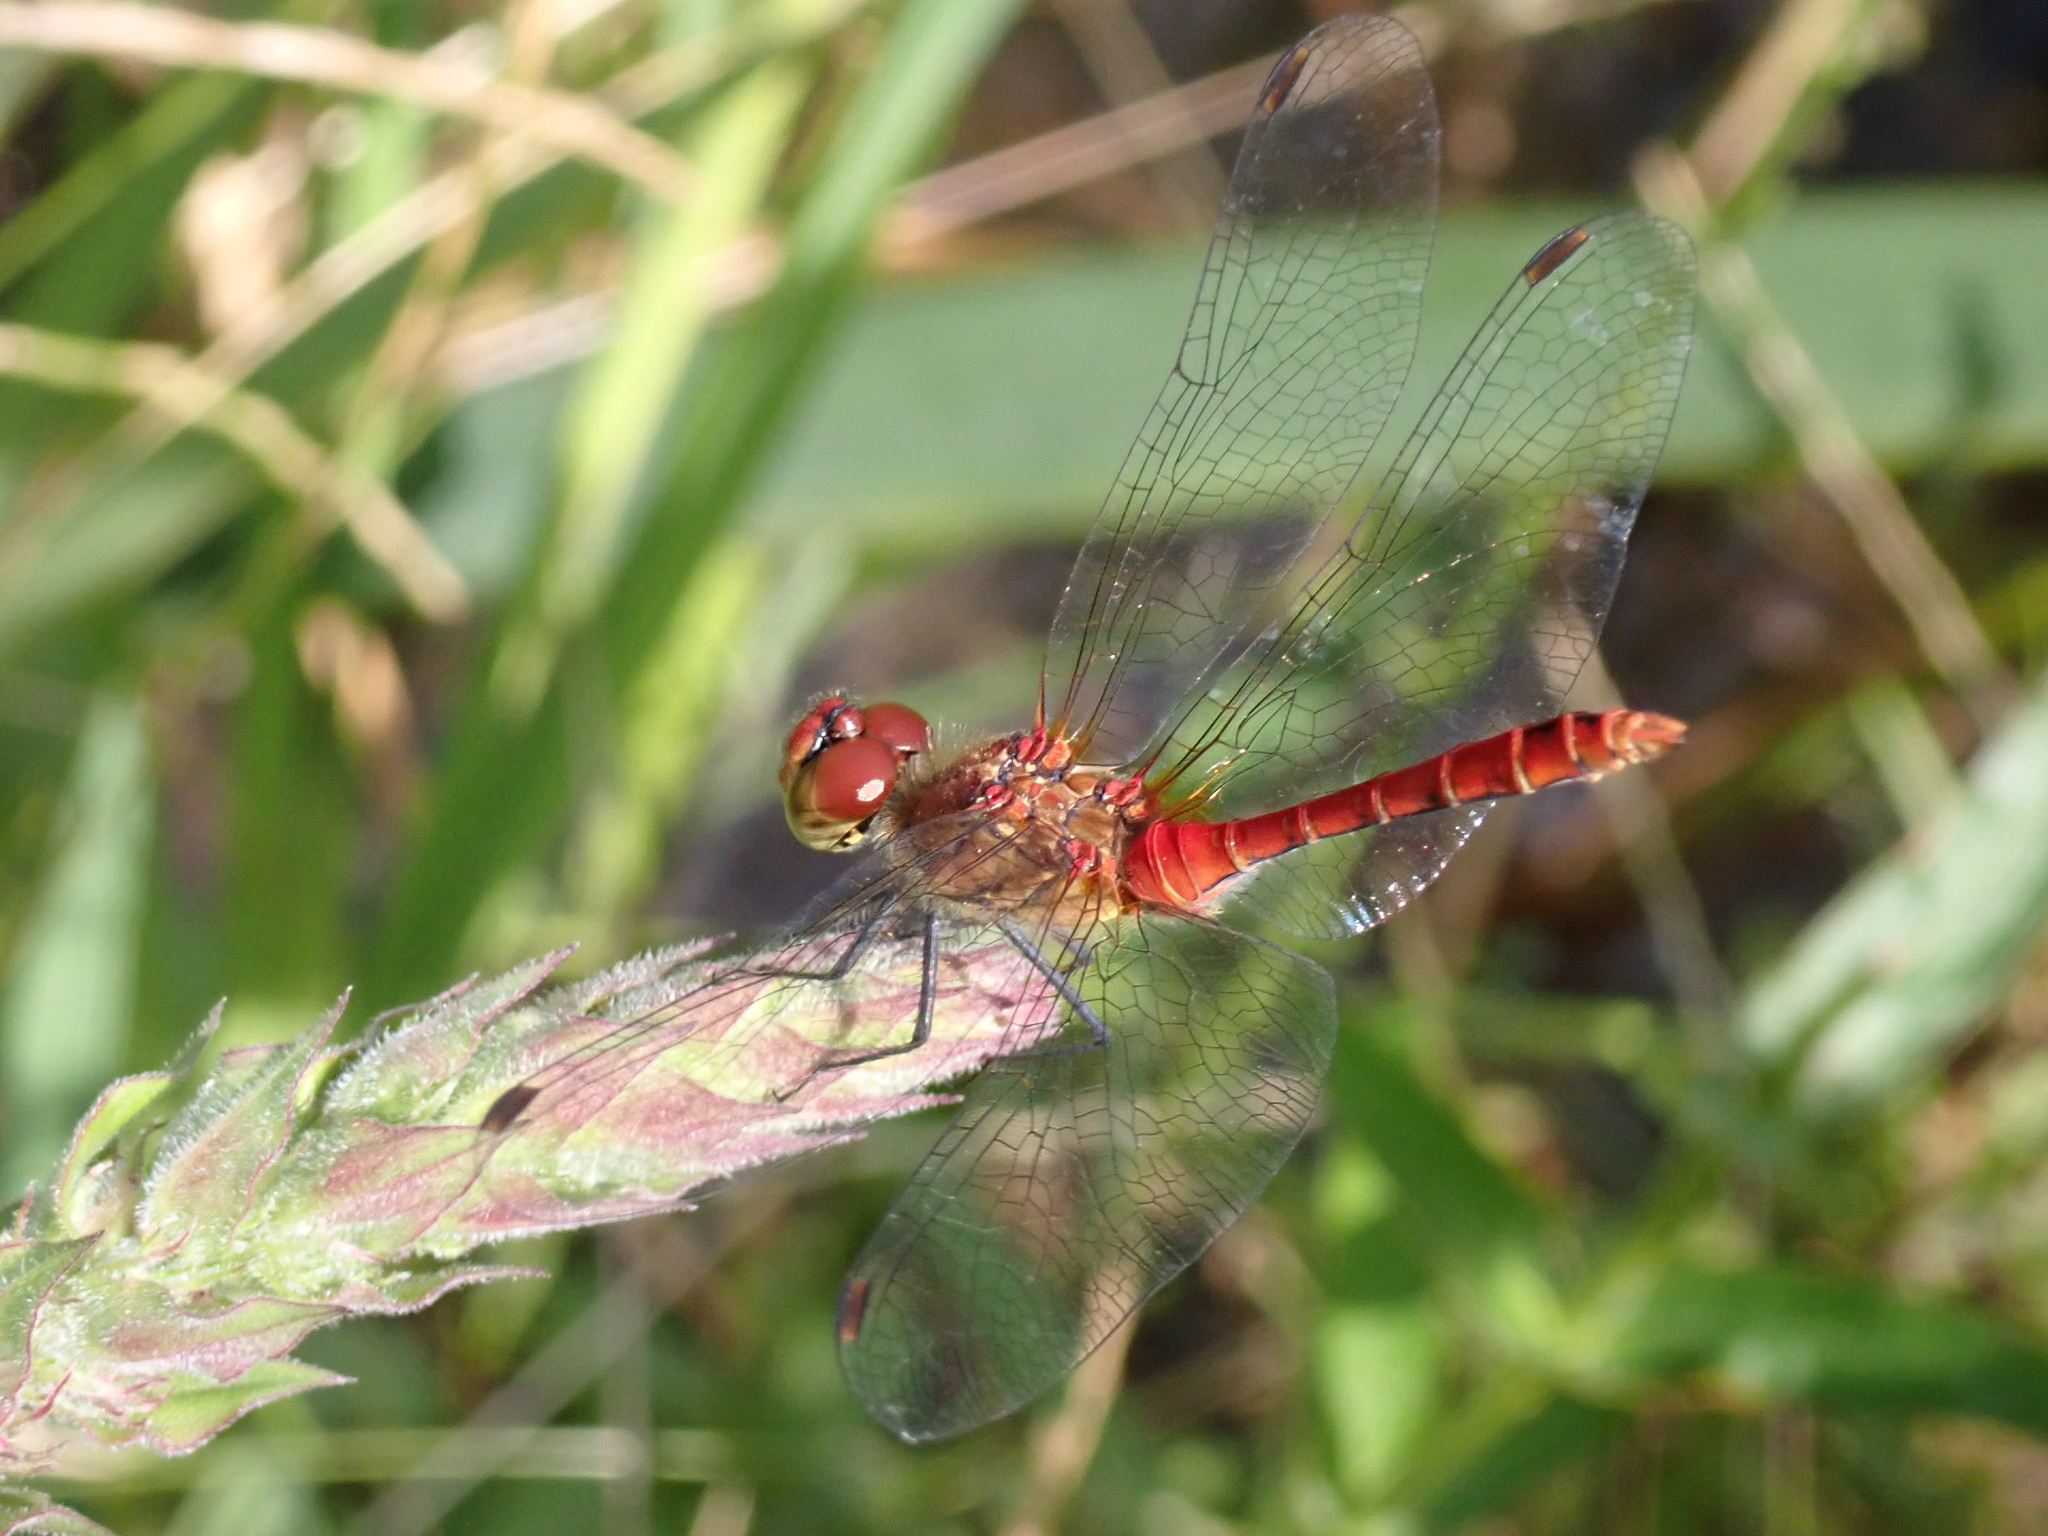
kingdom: Animalia
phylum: Arthropoda
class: Insecta
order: Odonata
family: Libellulidae
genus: Sympetrum
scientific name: Sympetrum sanguineum
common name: Ruddy darter
